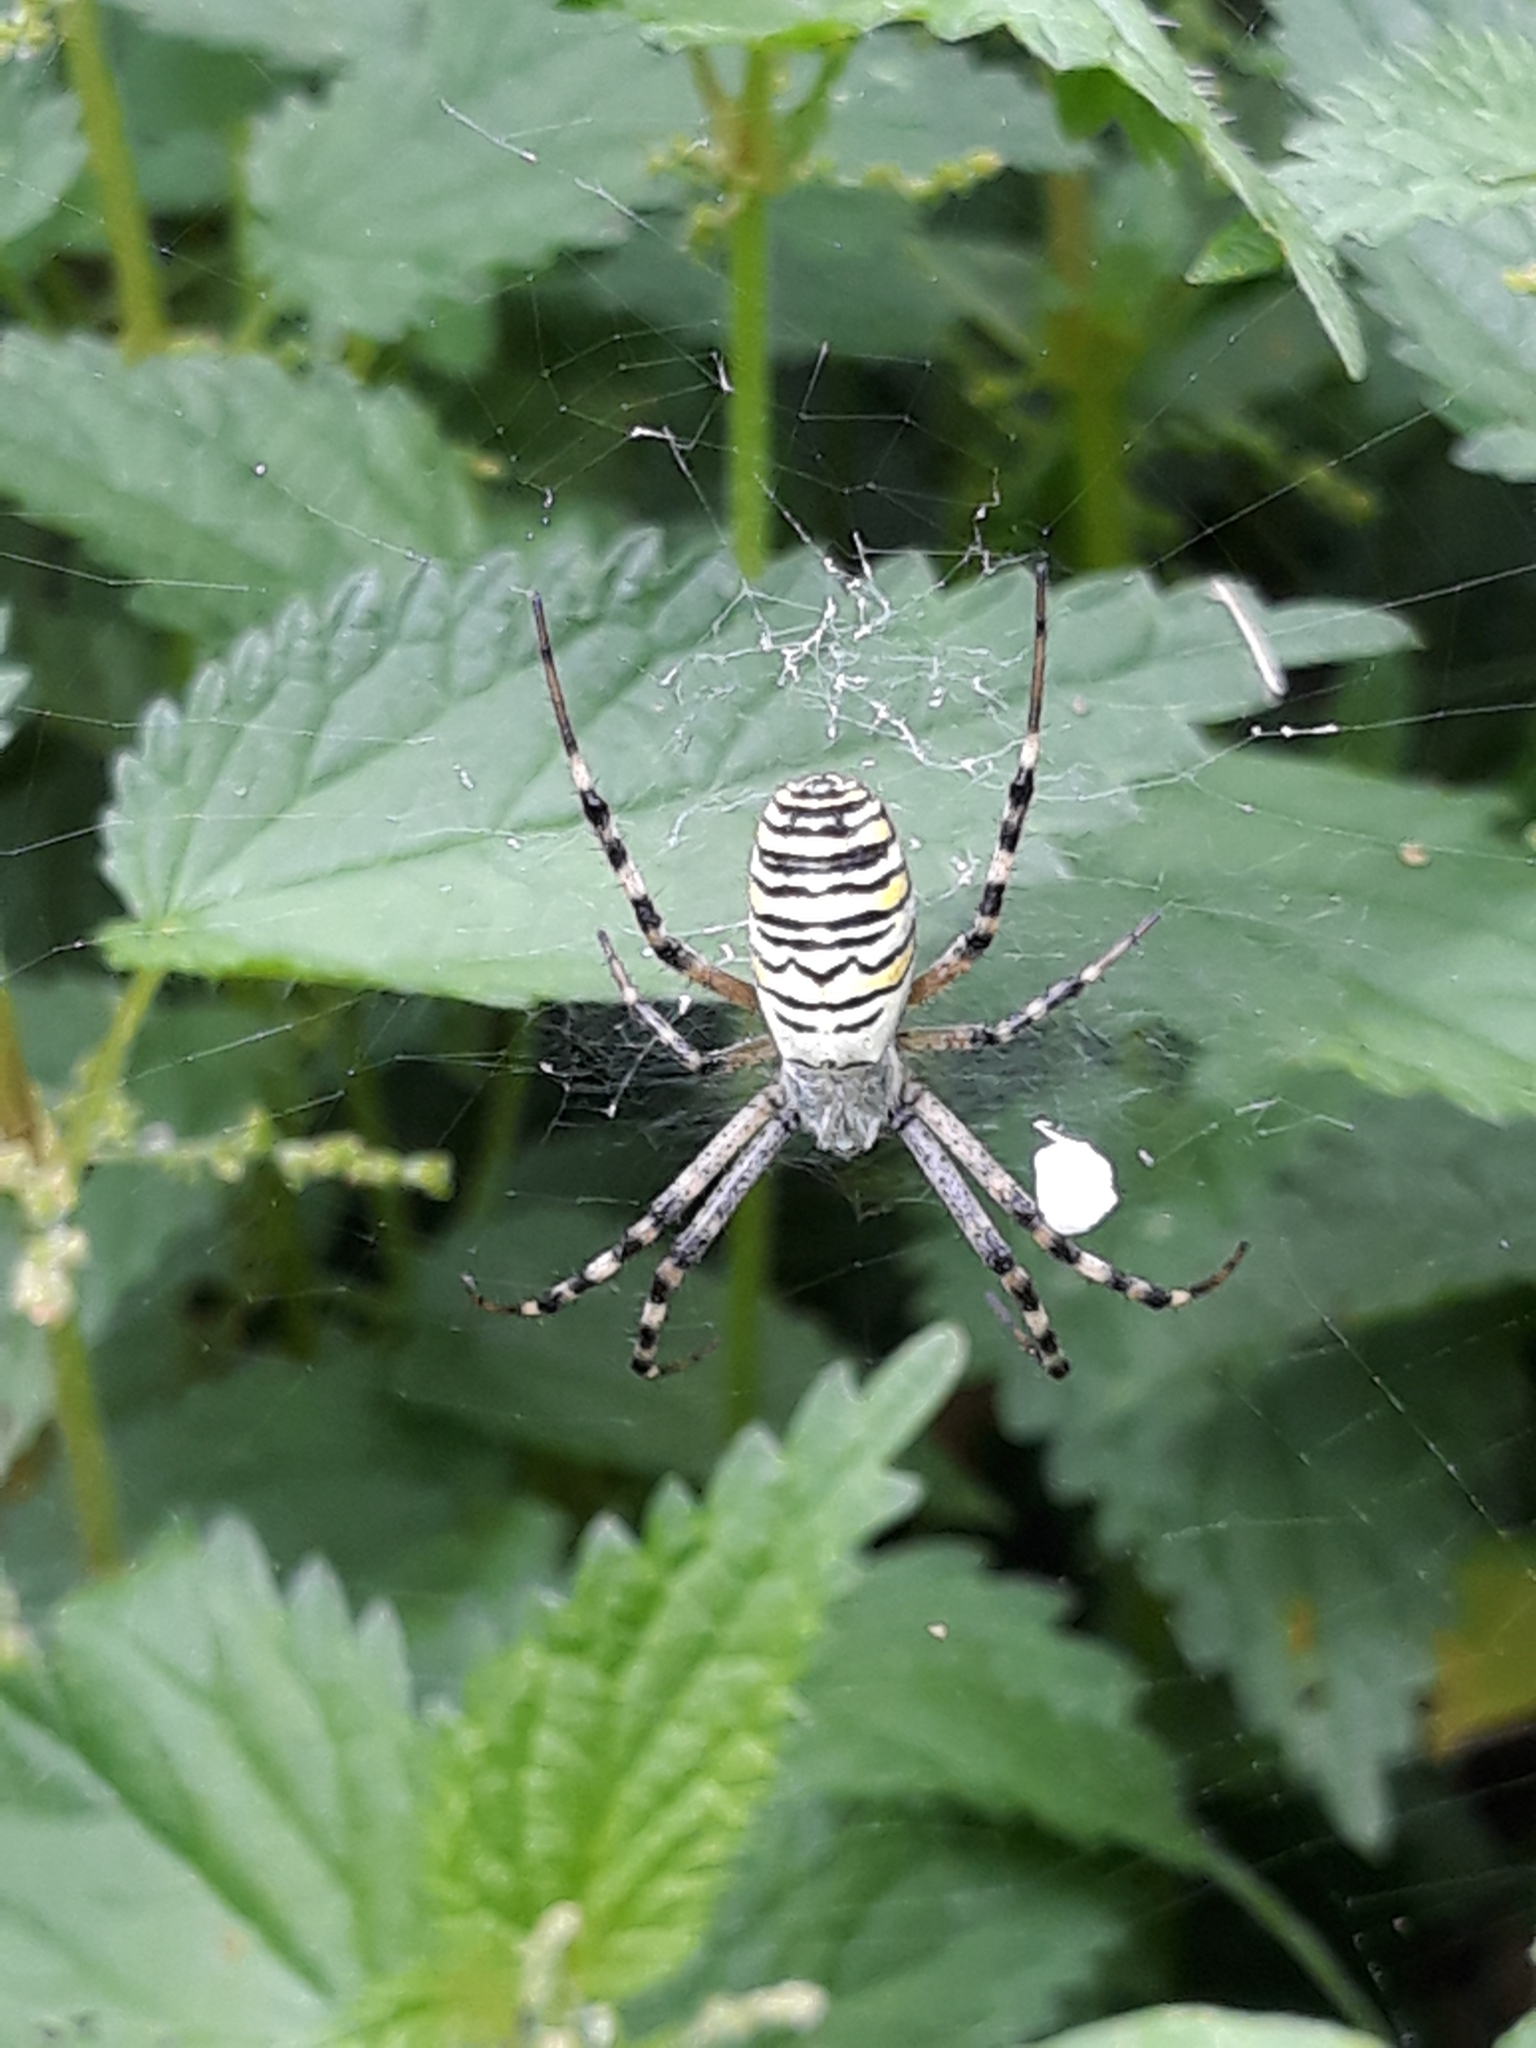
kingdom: Animalia
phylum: Arthropoda
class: Arachnida
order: Araneae
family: Araneidae
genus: Argiope
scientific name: Argiope bruennichi
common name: Wasp spider
